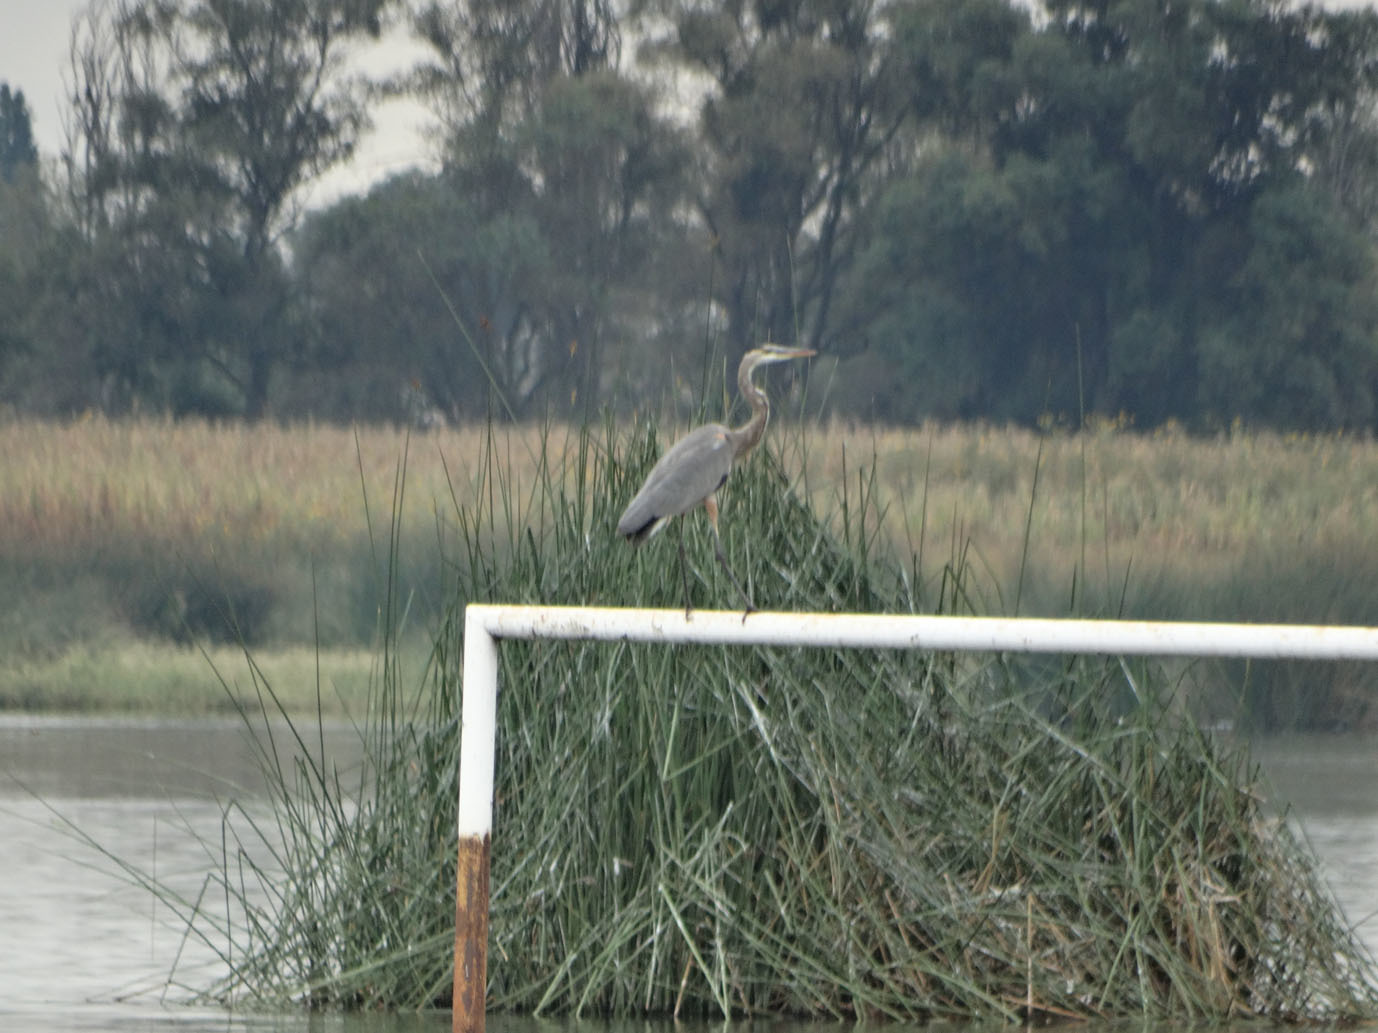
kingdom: Animalia
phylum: Chordata
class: Aves
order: Pelecaniformes
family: Ardeidae
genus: Ardea
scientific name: Ardea herodias
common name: Great blue heron
